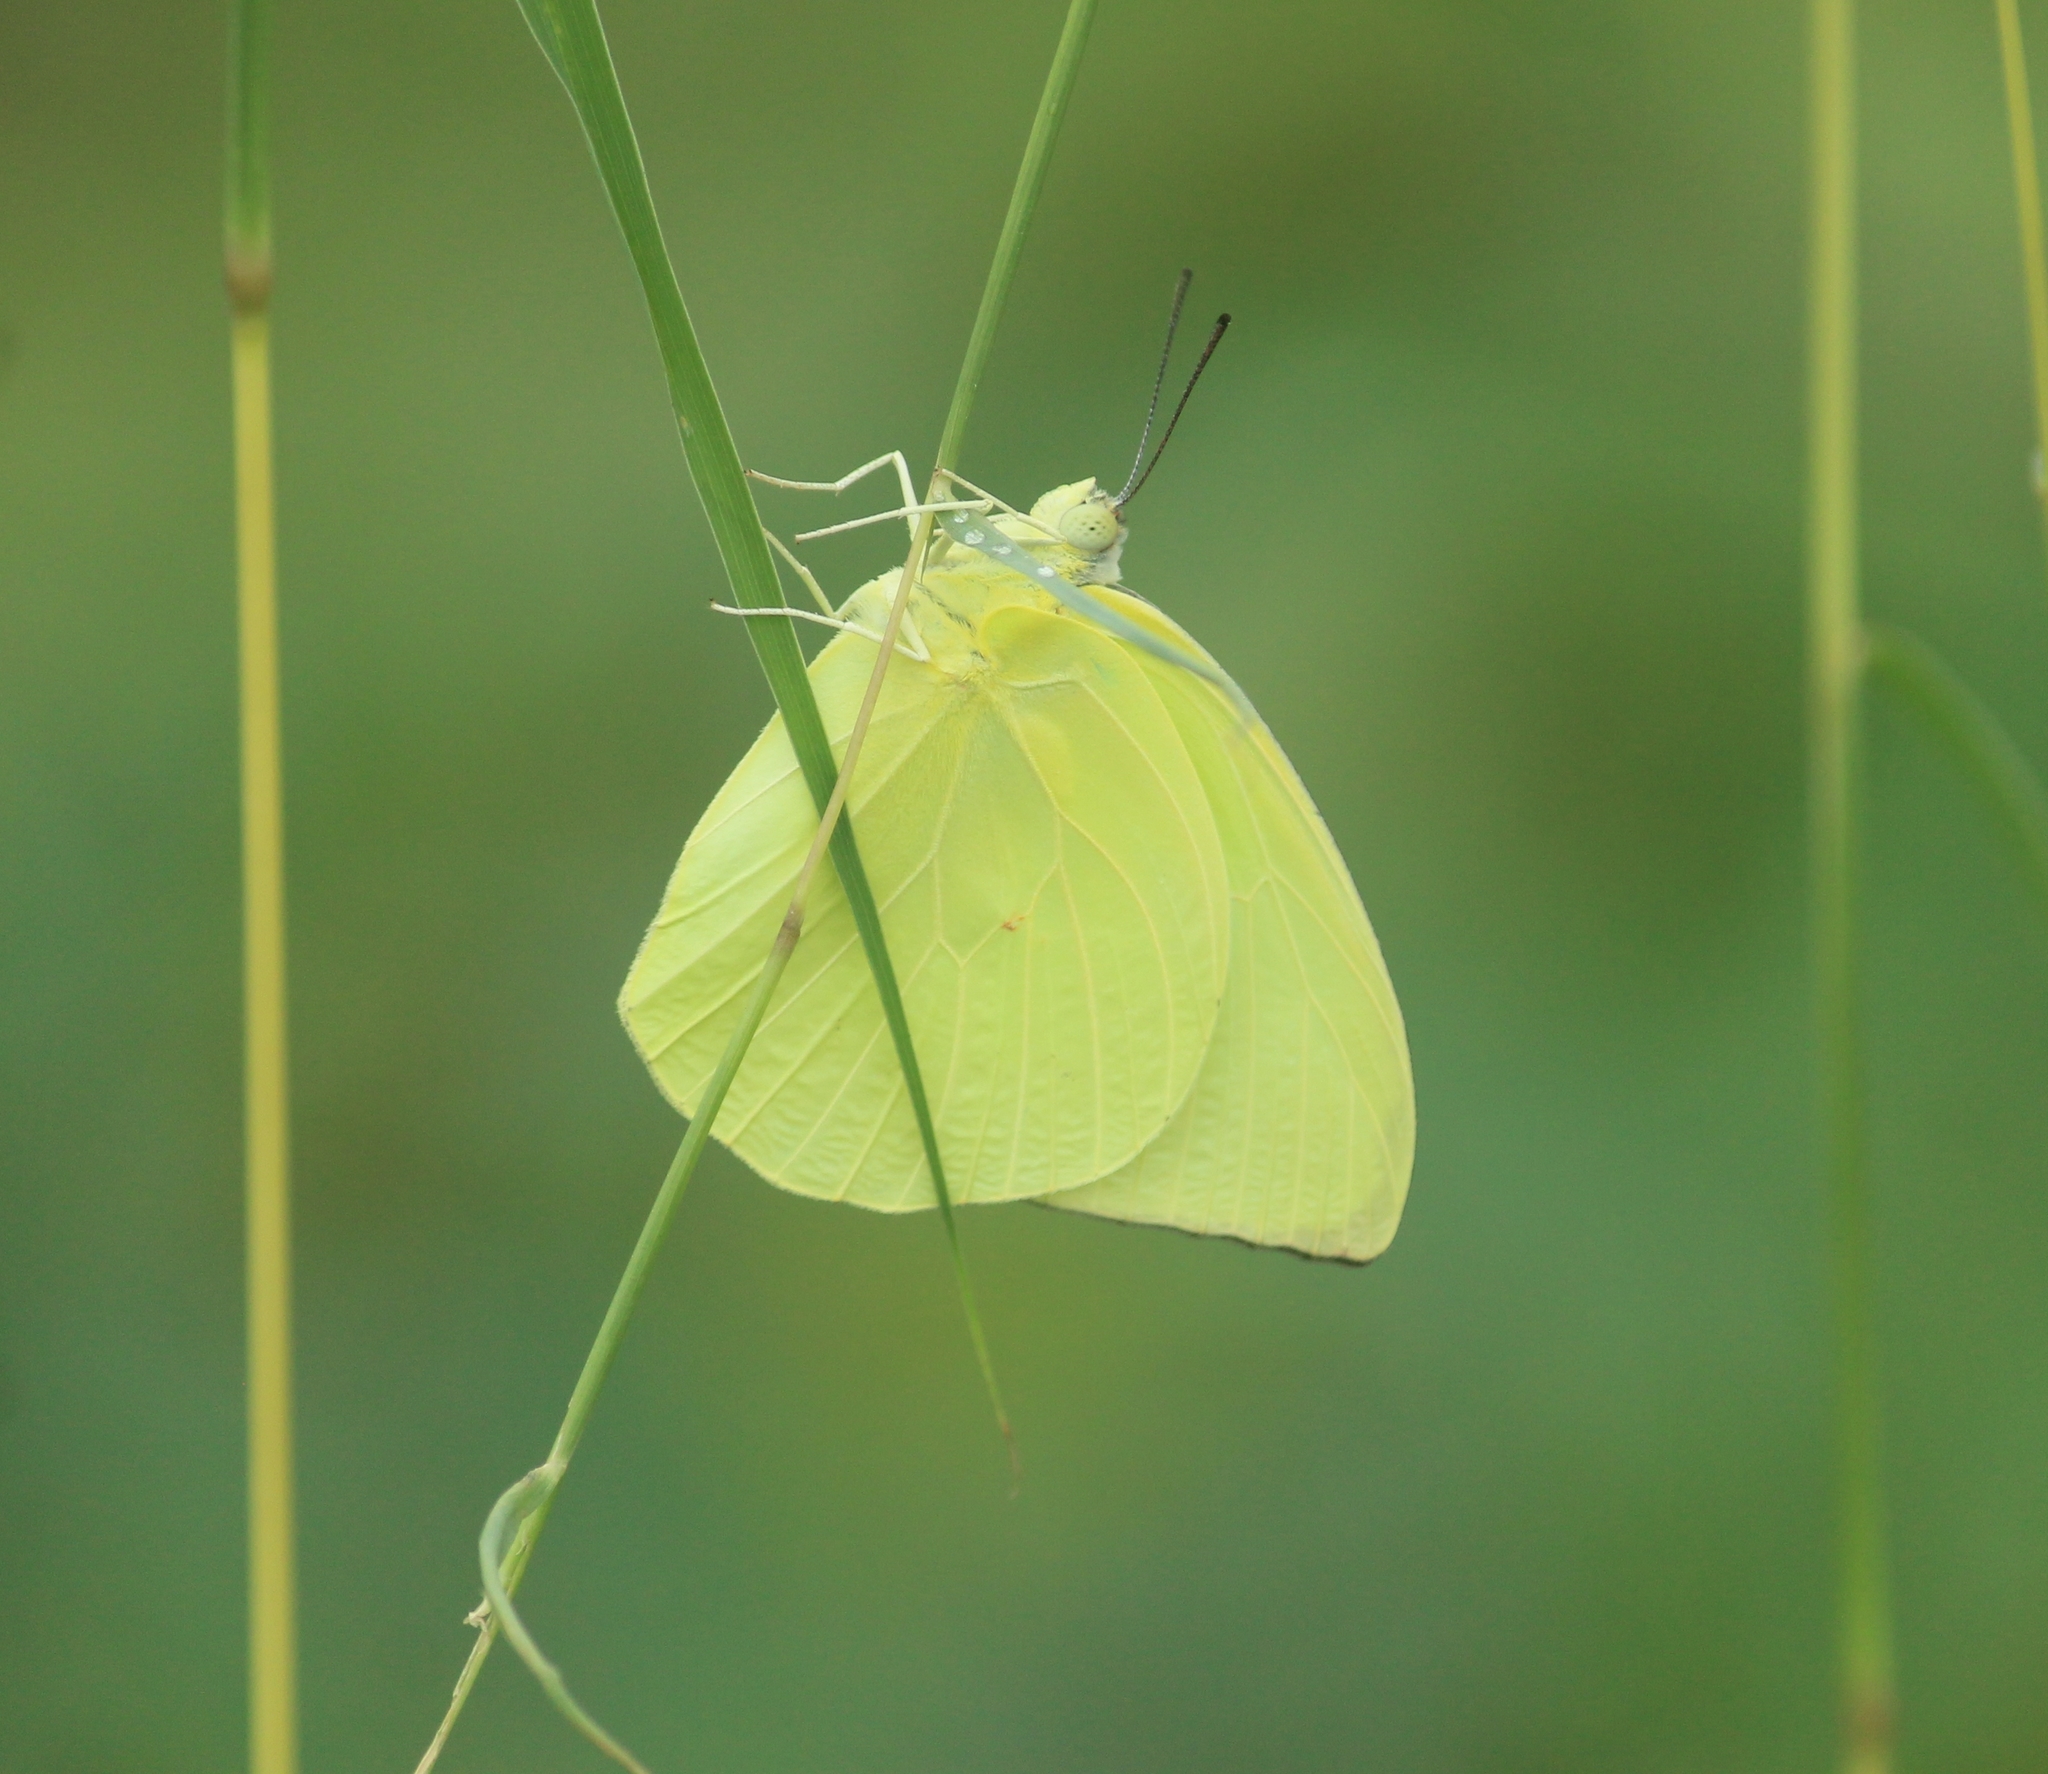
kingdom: Animalia
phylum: Arthropoda
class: Insecta
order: Lepidoptera
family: Pieridae
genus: Catopsilia
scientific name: Catopsilia pomona
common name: Common emigrant
